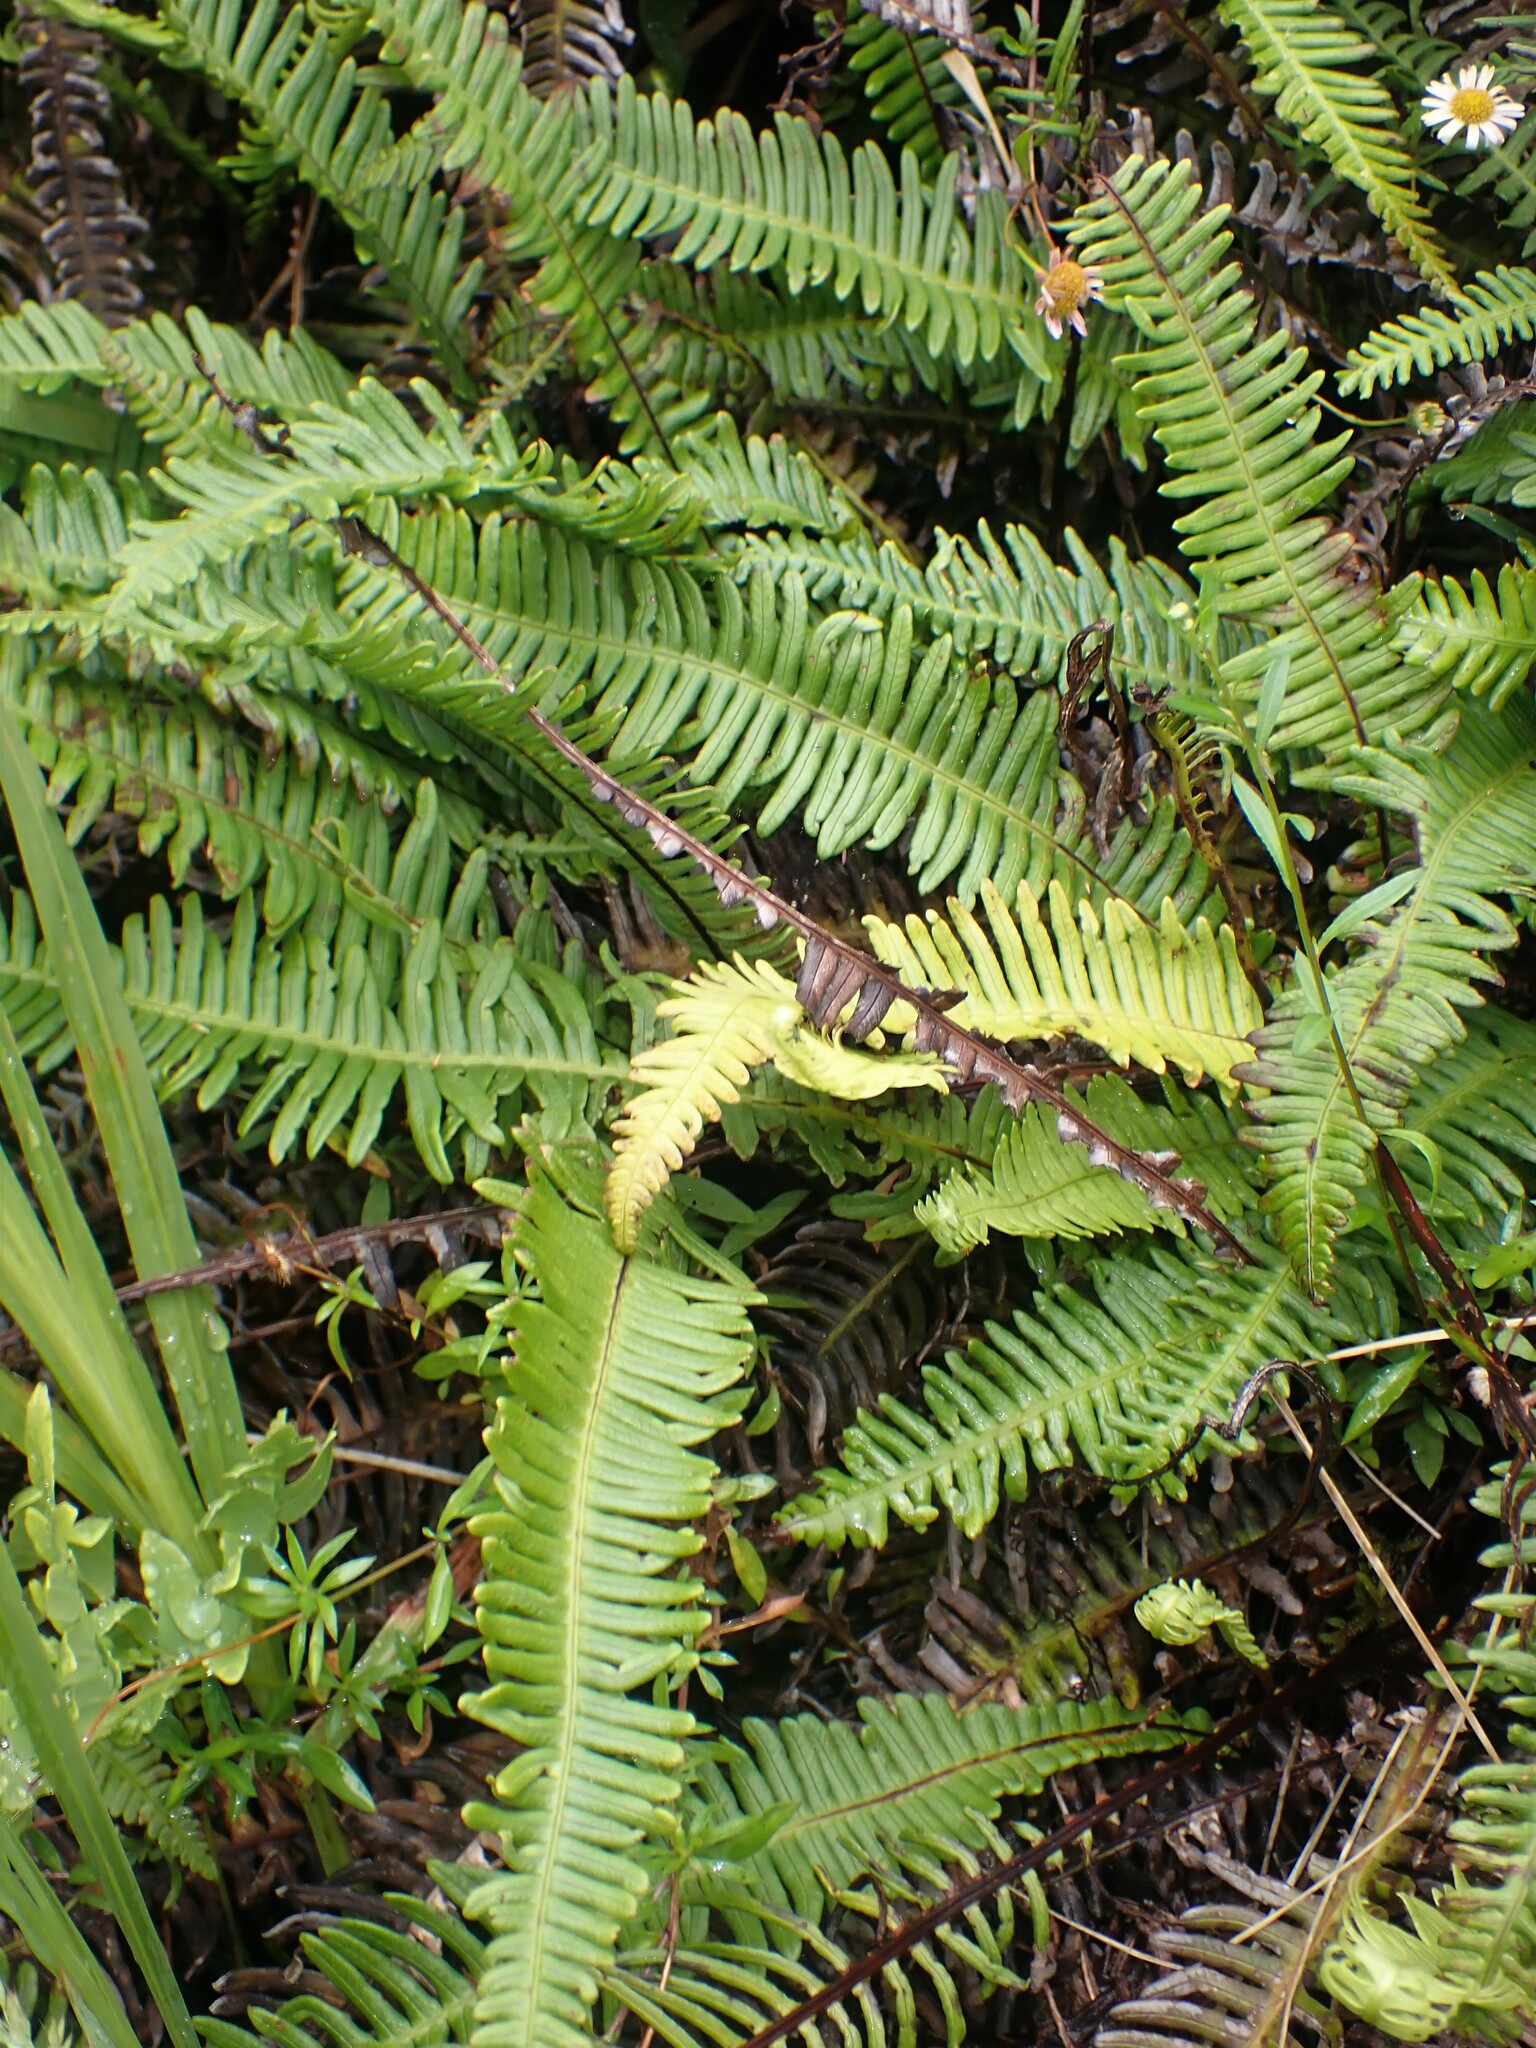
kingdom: Plantae
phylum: Tracheophyta
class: Polypodiopsida
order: Polypodiales
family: Blechnaceae
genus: Struthiopteris
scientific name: Struthiopteris spicant
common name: Deer fern
